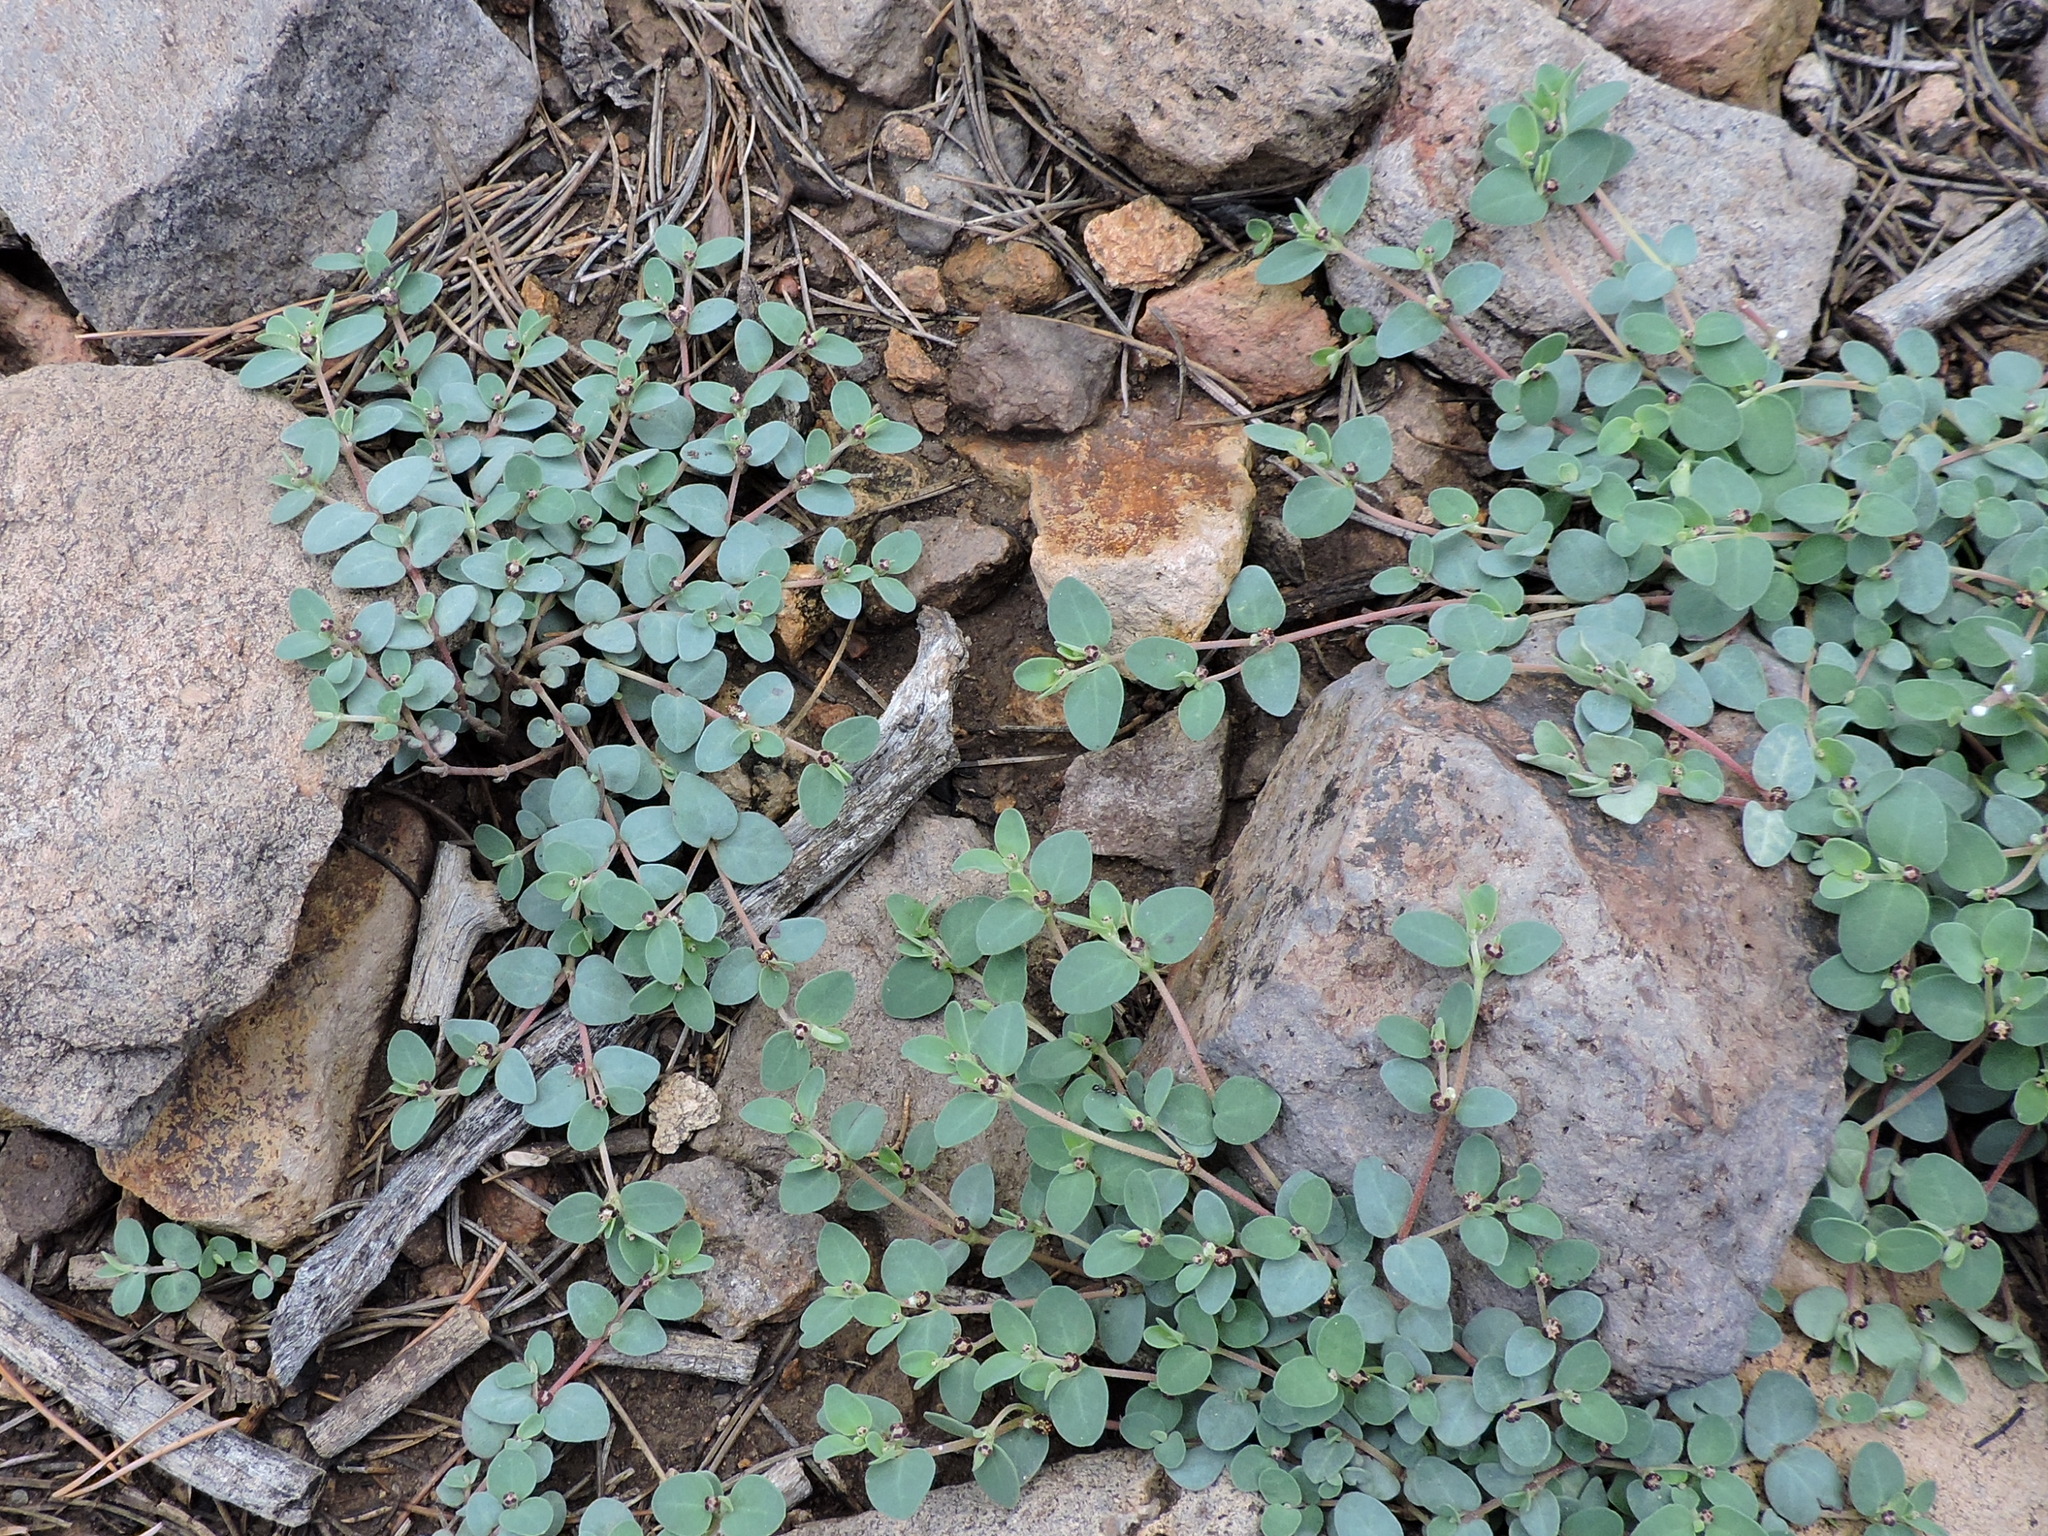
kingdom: Plantae
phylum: Tracheophyta
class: Magnoliopsida
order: Malpighiales
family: Euphorbiaceae
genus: Euphorbia
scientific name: Euphorbia cinerascens
